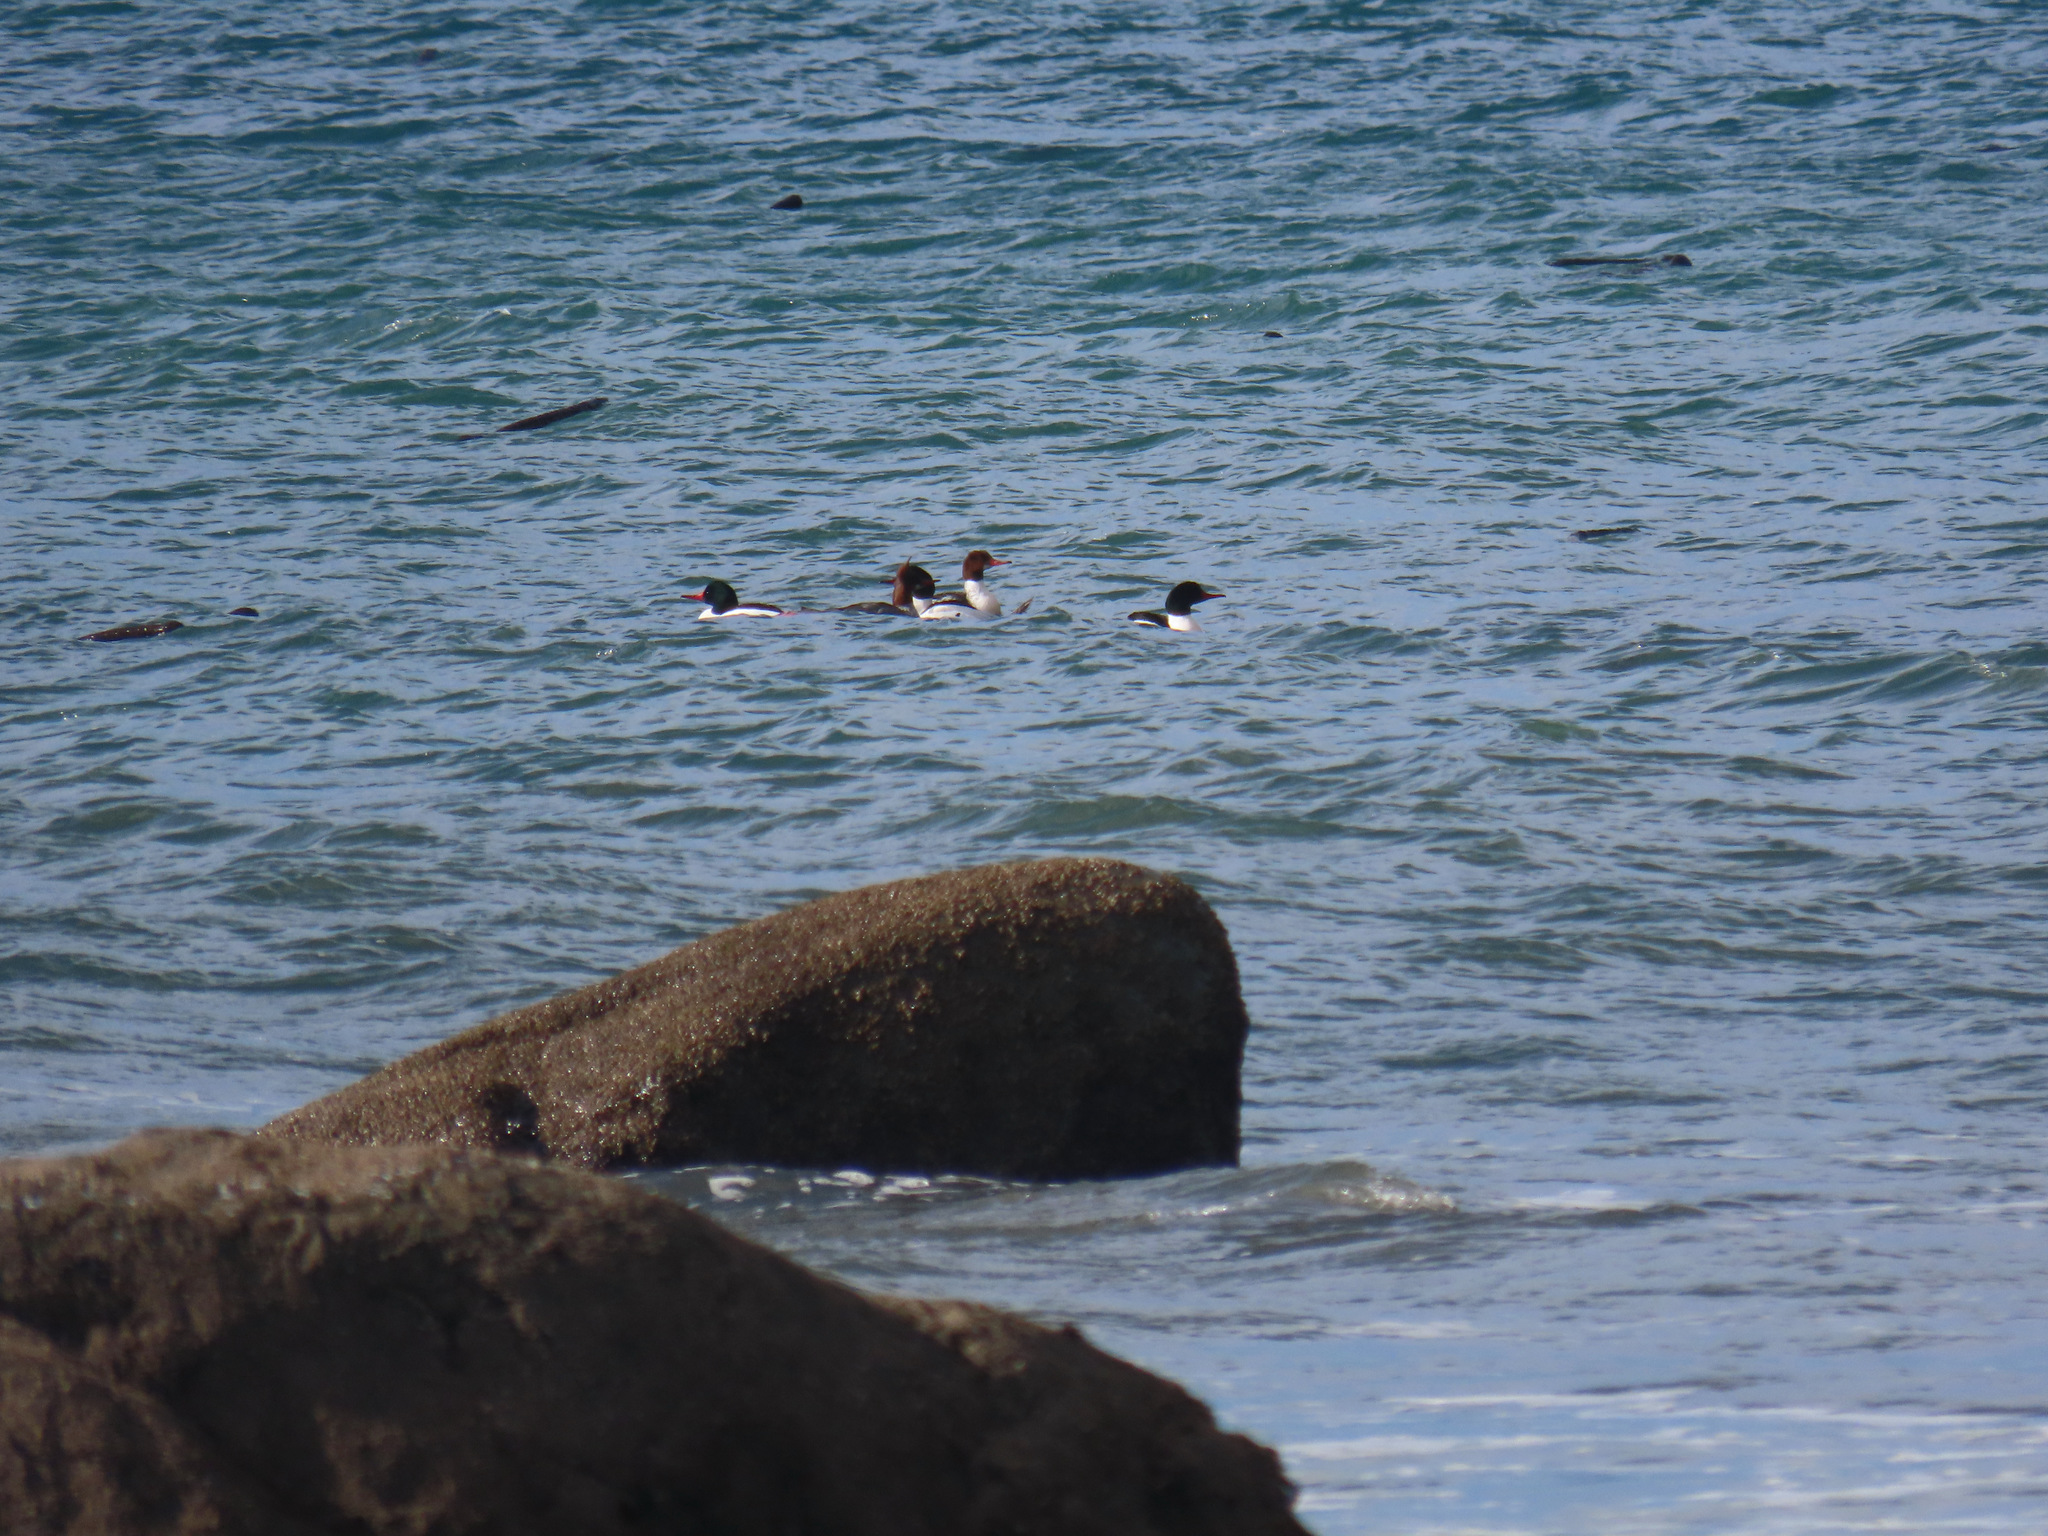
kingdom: Animalia
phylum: Chordata
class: Aves
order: Anseriformes
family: Anatidae
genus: Mergus
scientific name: Mergus merganser
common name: Common merganser
